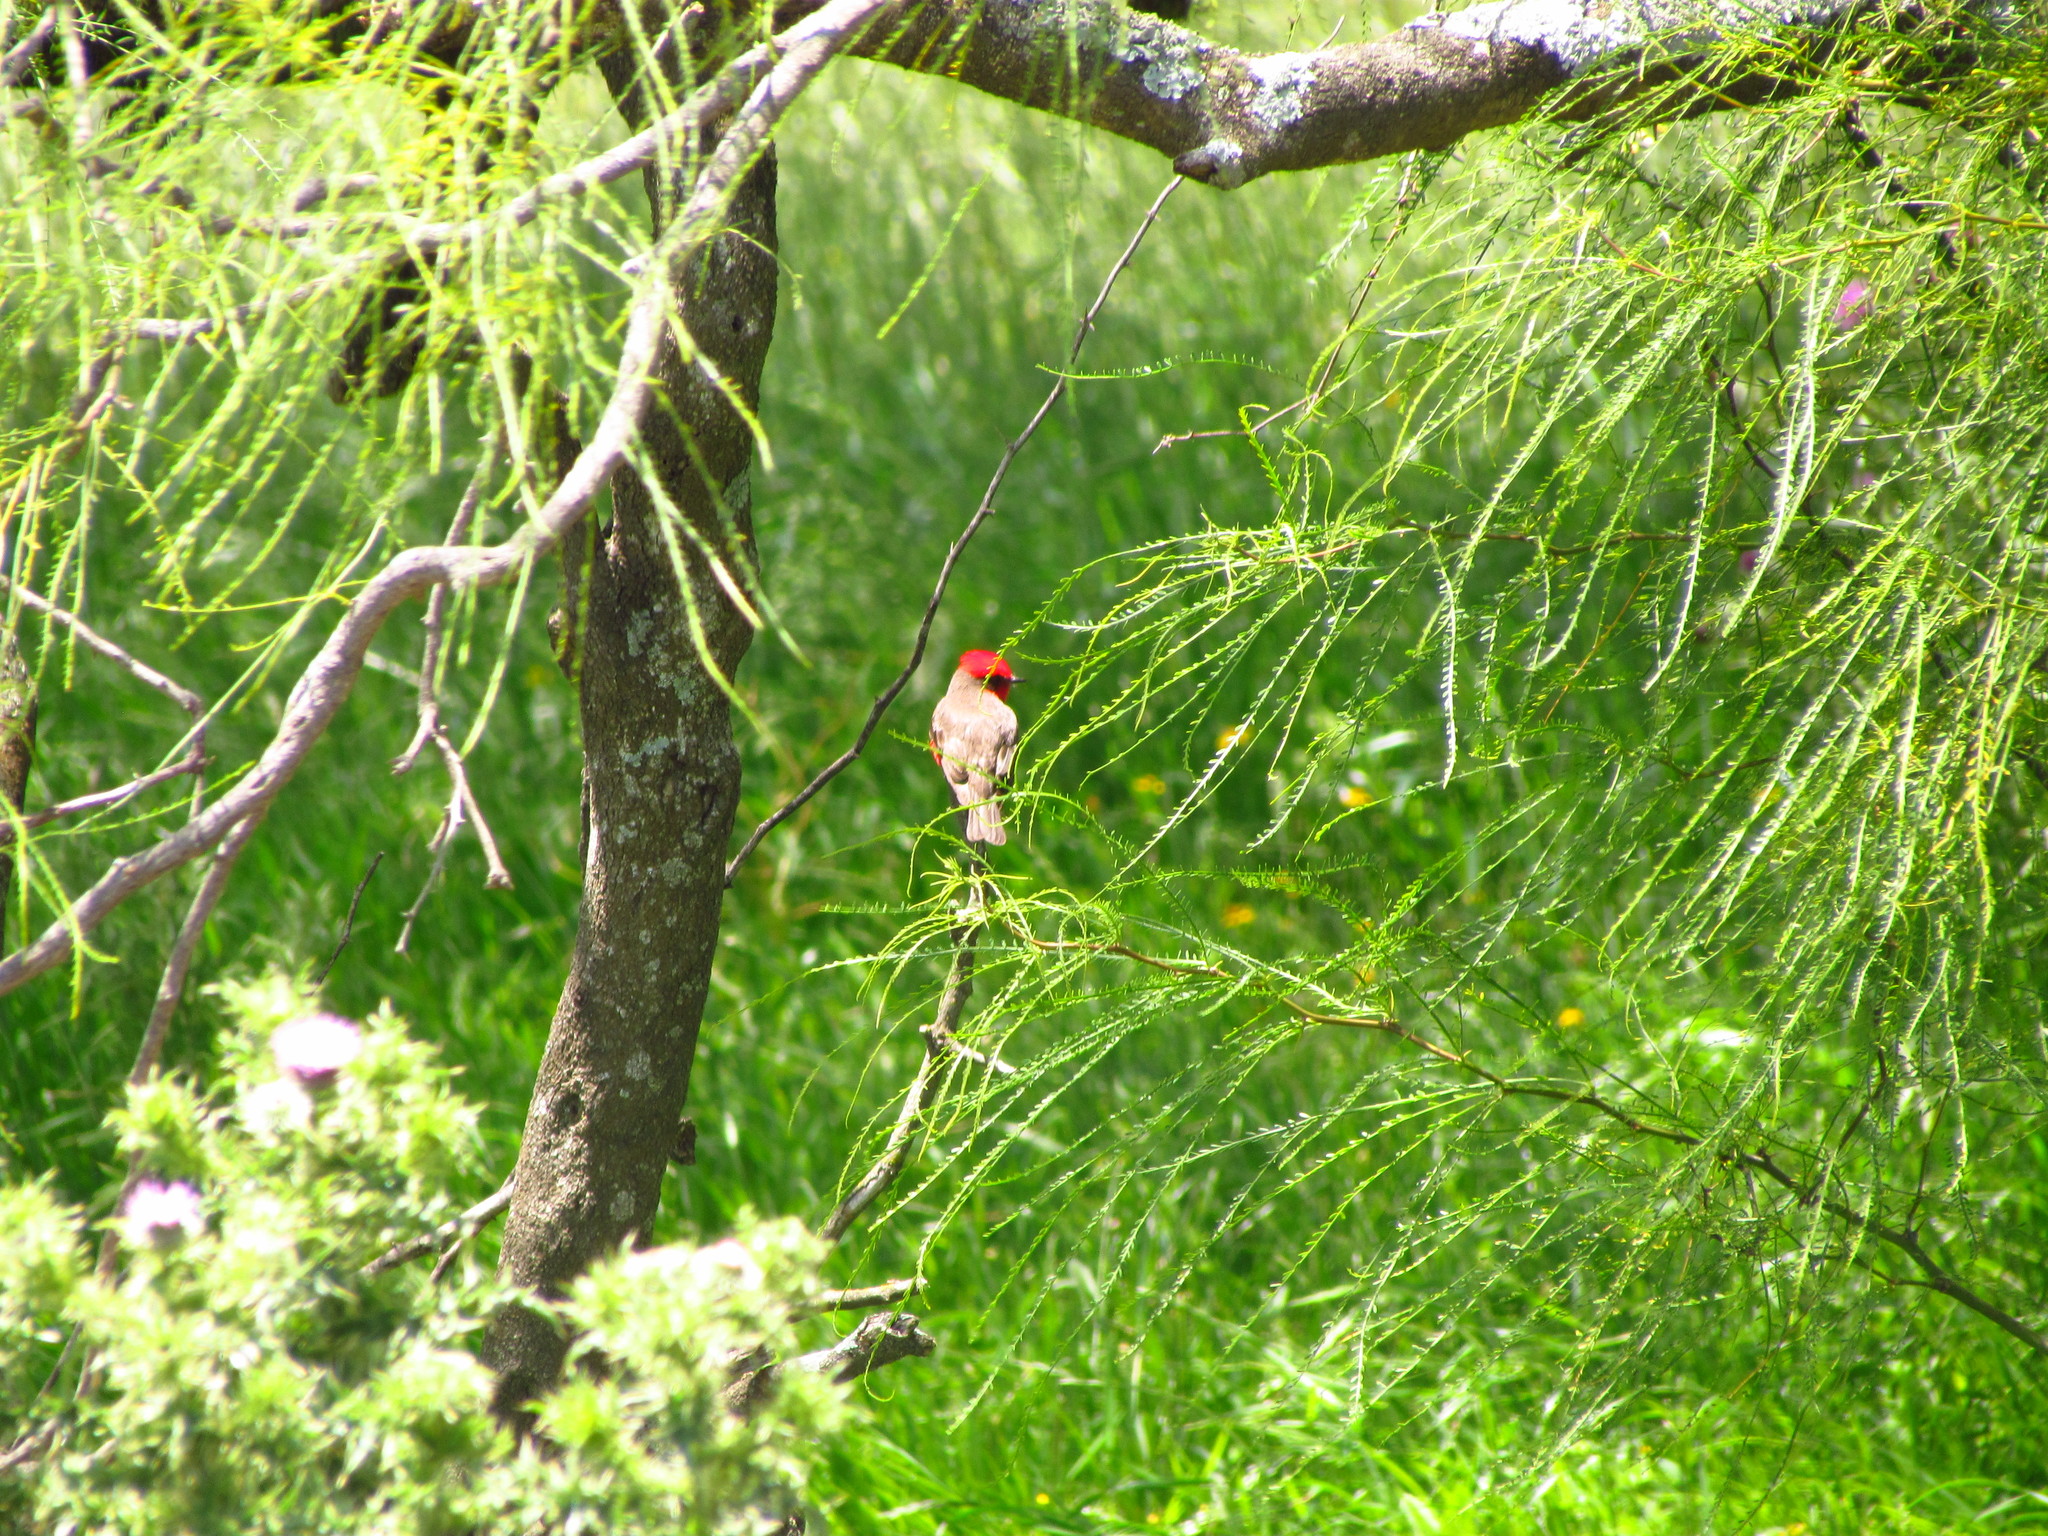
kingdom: Animalia
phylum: Chordata
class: Aves
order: Passeriformes
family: Tyrannidae
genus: Pyrocephalus
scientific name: Pyrocephalus rubinus
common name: Vermilion flycatcher
